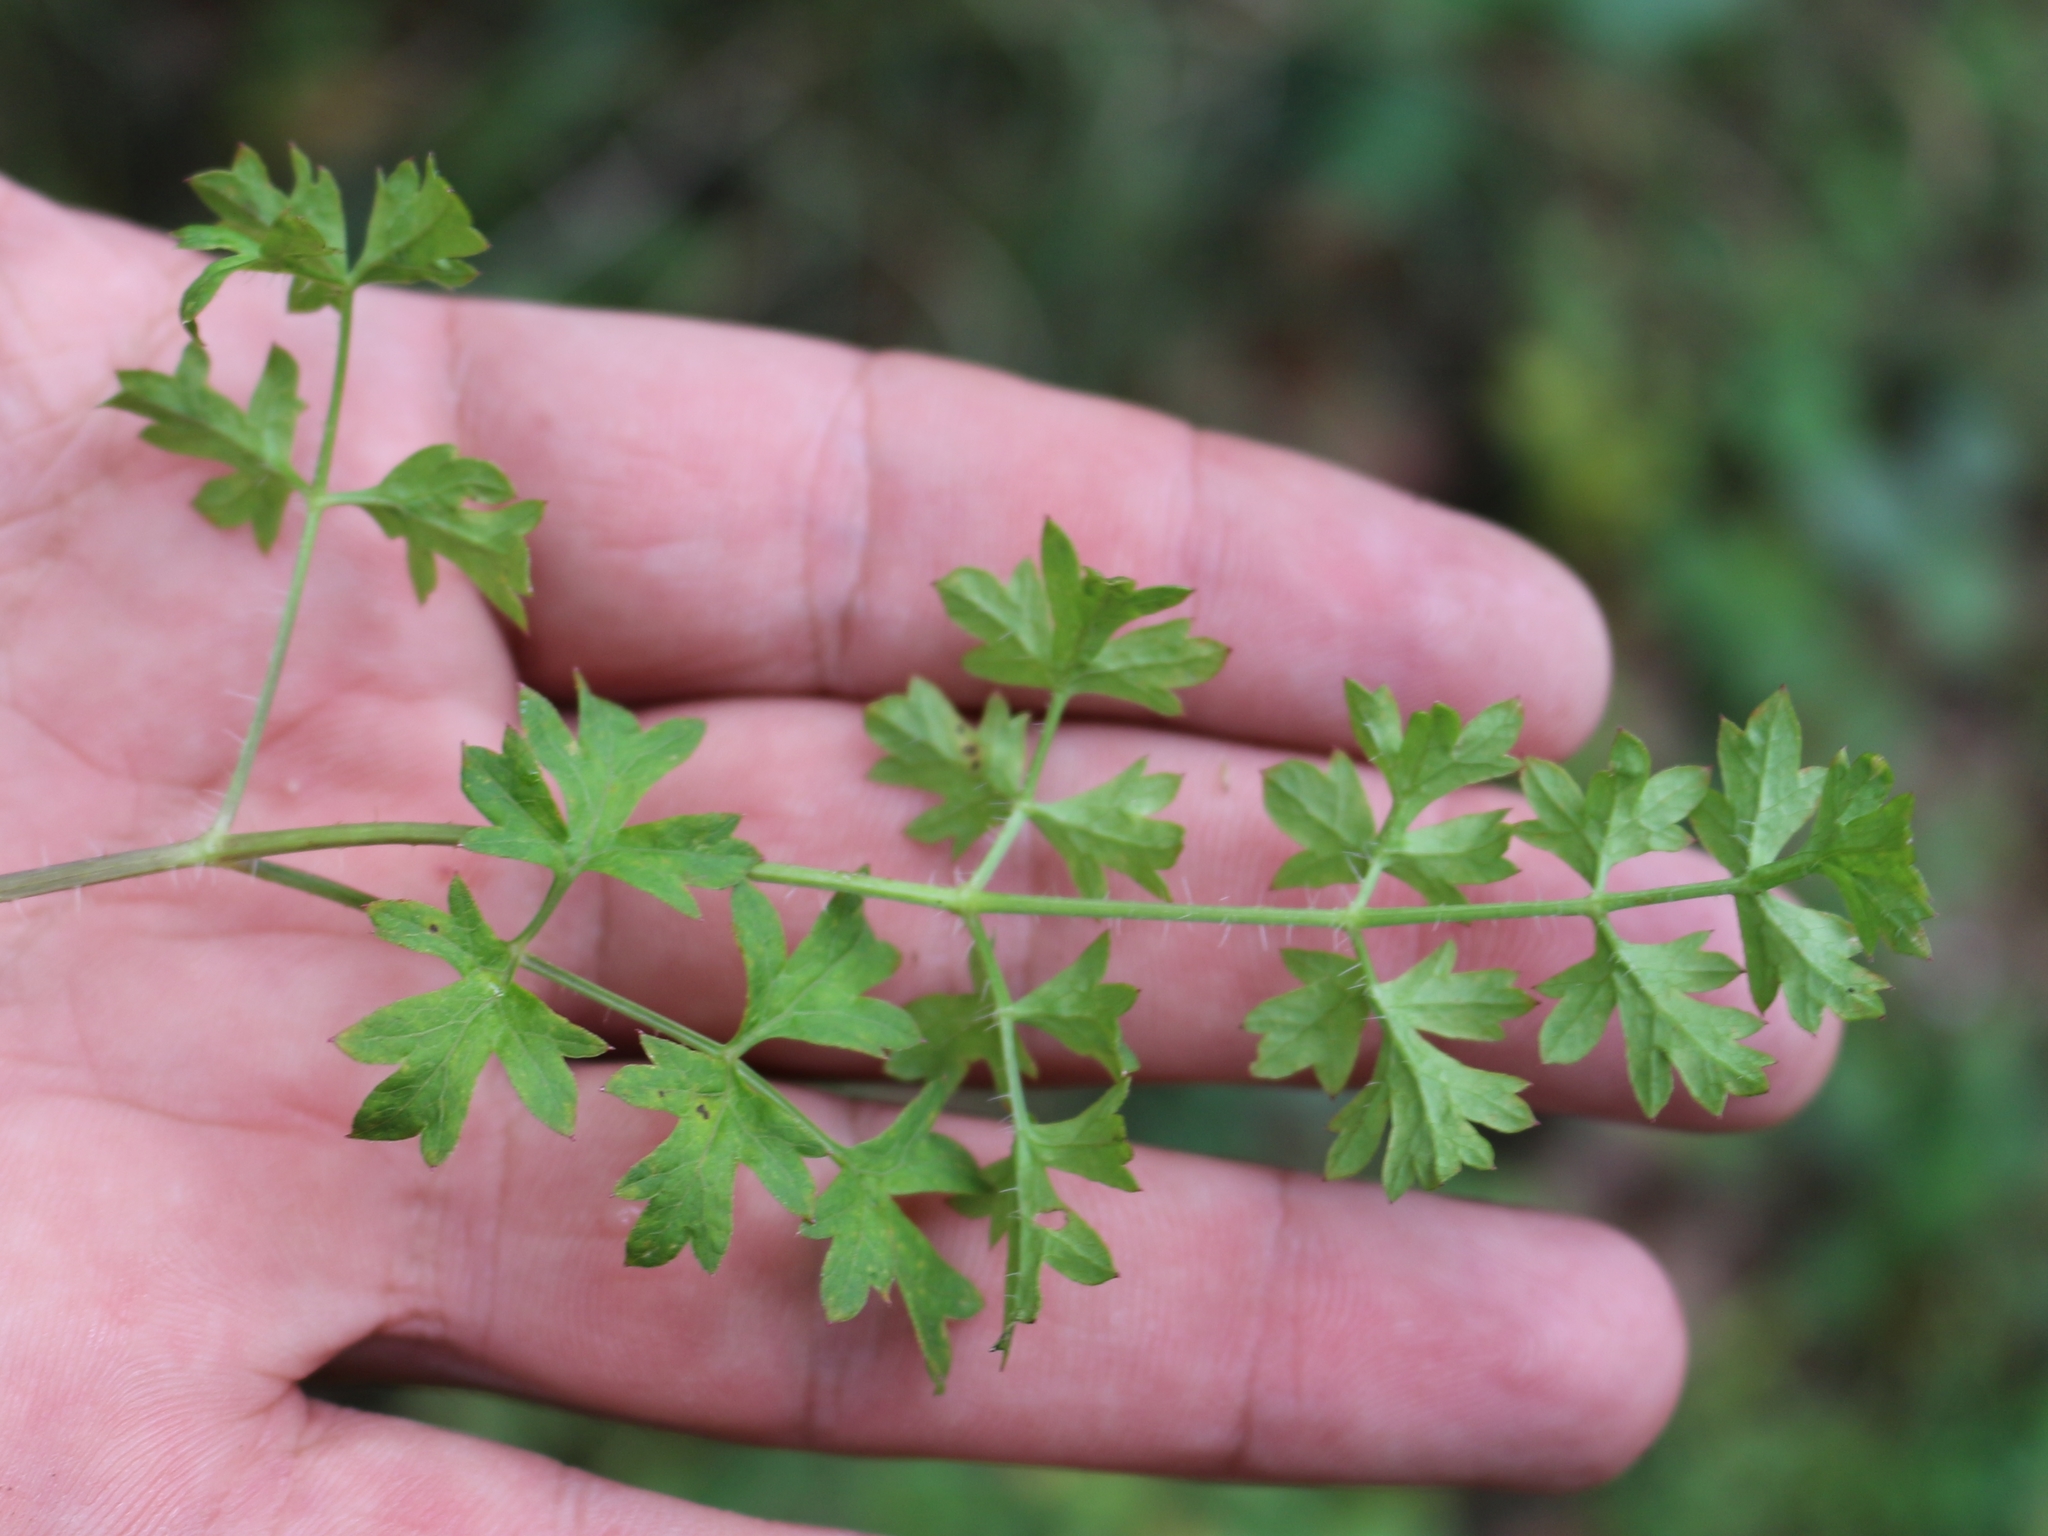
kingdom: Plantae
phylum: Tracheophyta
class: Magnoliopsida
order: Apiales
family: Apiaceae
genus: Silphiodaucus
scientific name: Silphiodaucus hispidus
